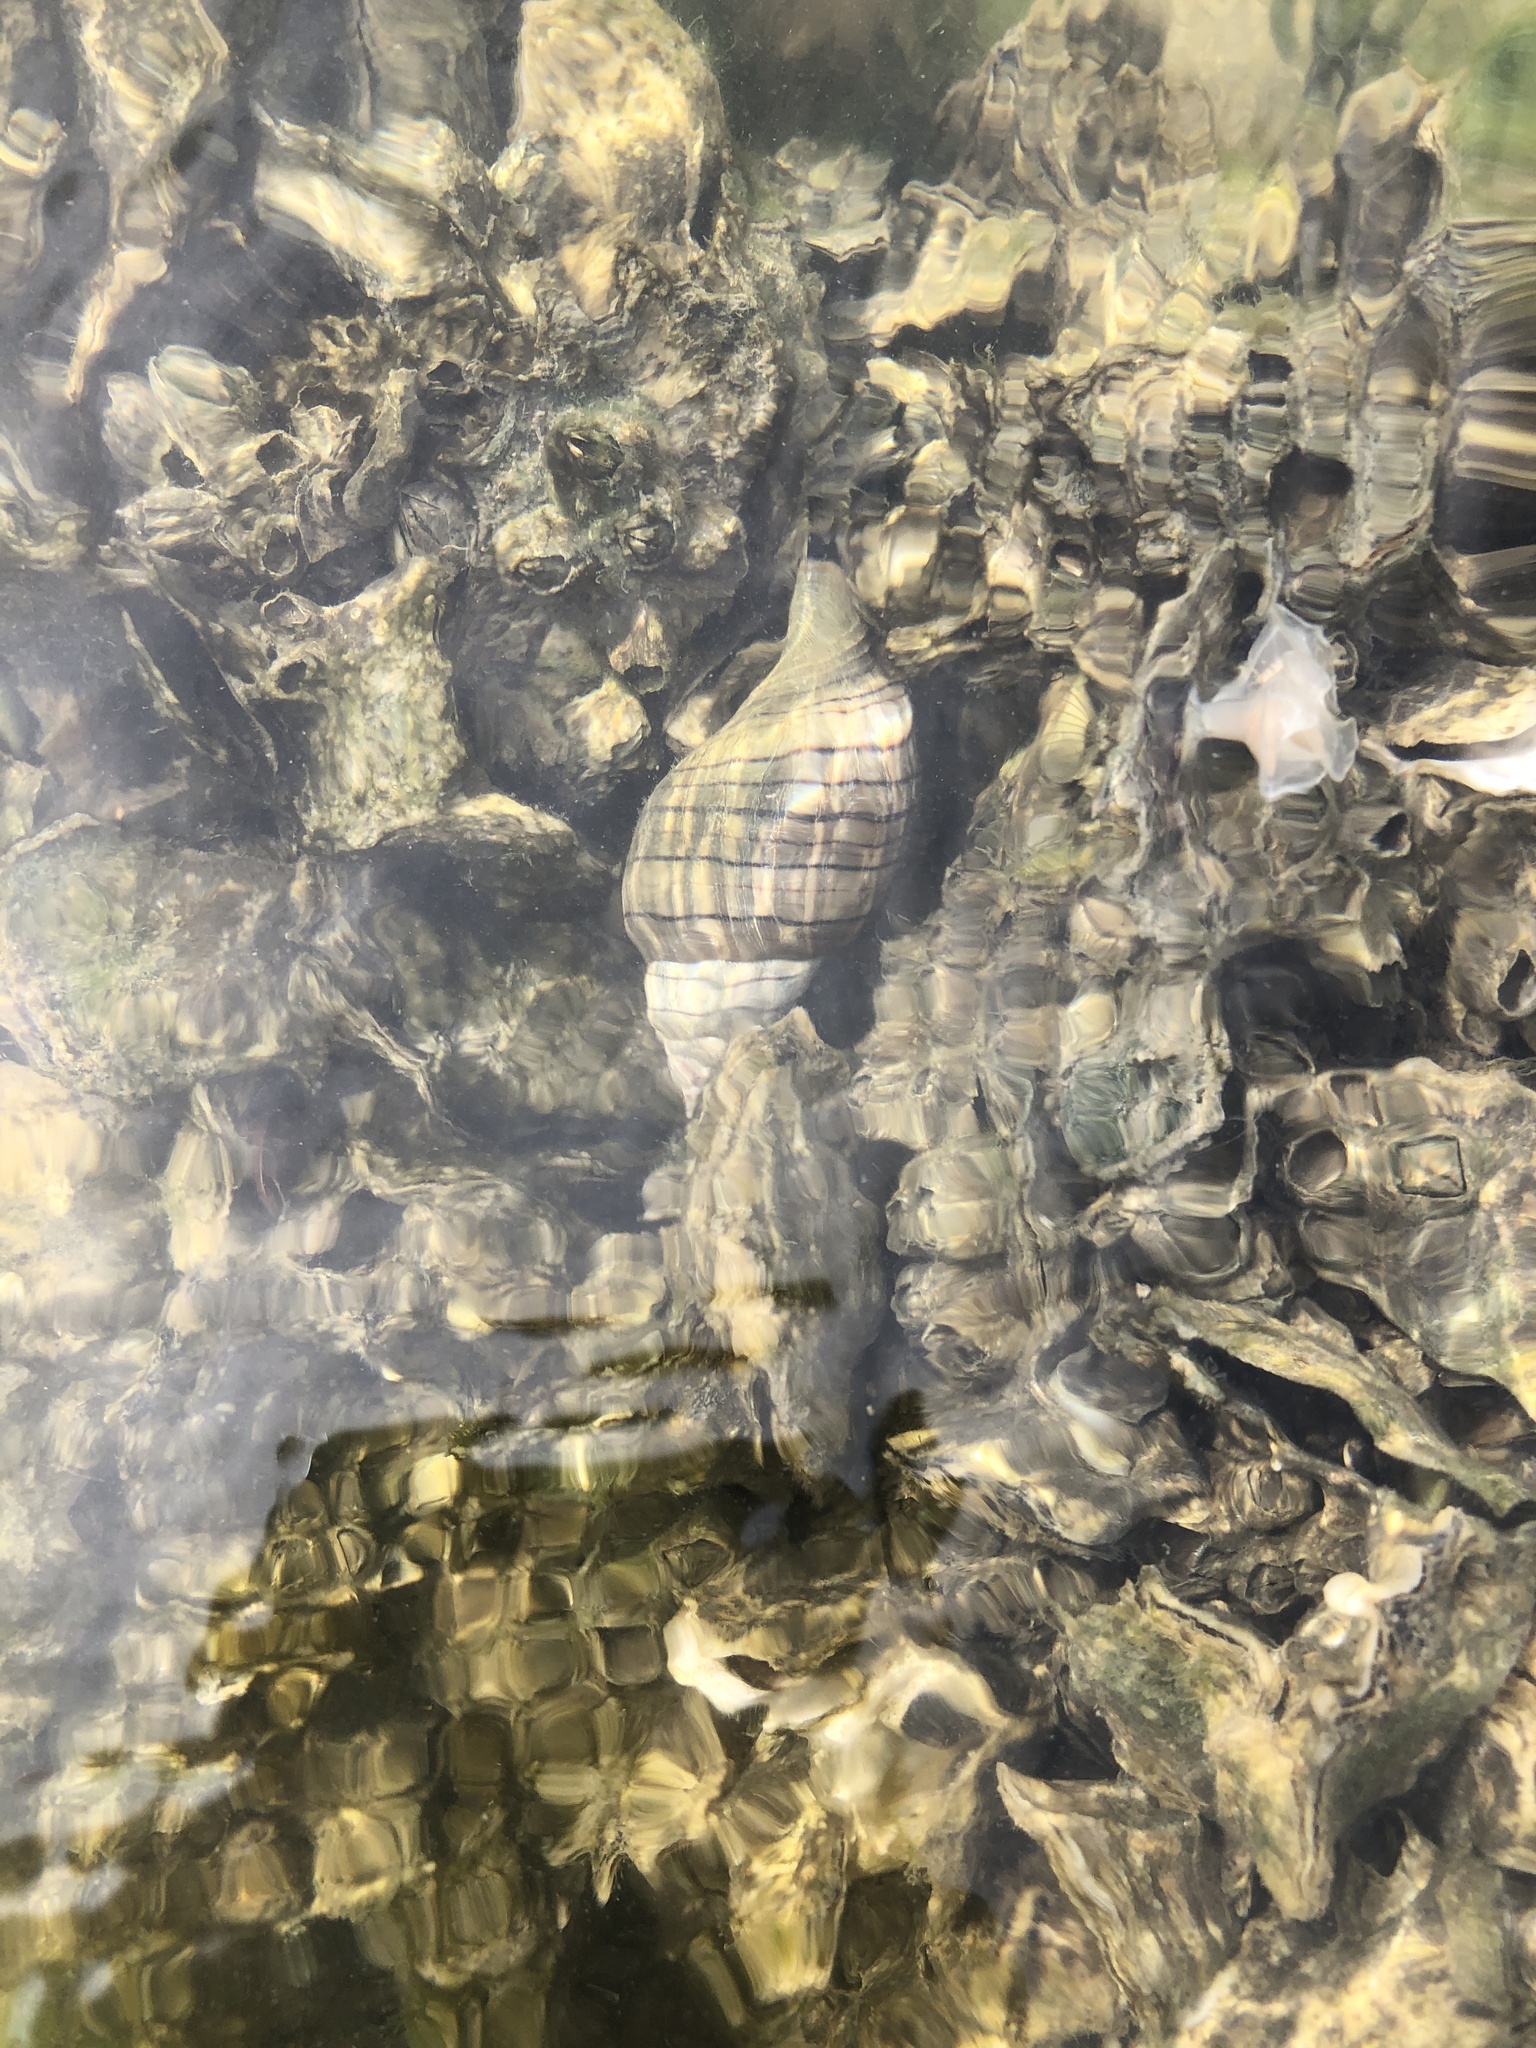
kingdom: Animalia
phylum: Mollusca
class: Gastropoda
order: Neogastropoda
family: Fasciolariidae
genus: Cinctura
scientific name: Cinctura hunteria
